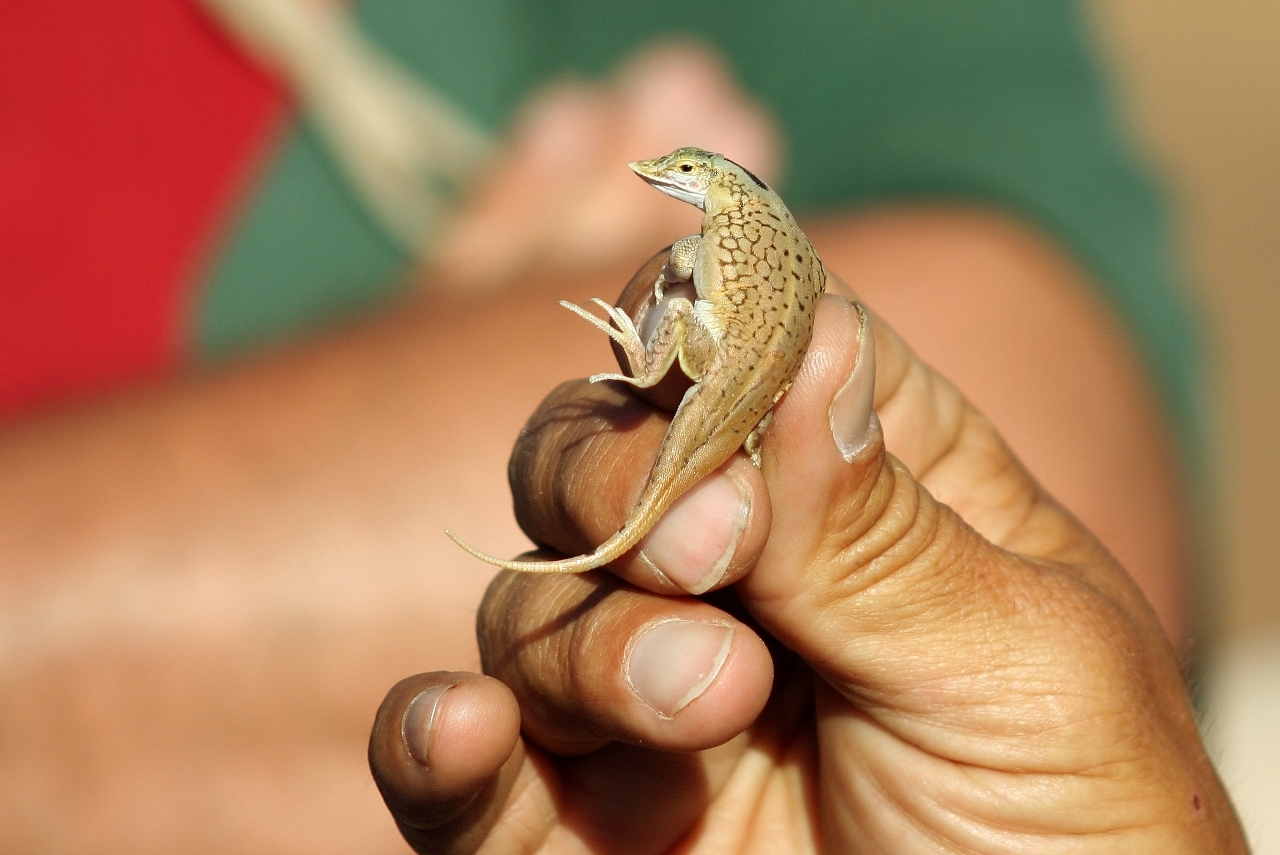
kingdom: Animalia
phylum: Chordata
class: Squamata
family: Lacertidae
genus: Meroles
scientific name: Meroles anchietae
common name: Anchieta’s dune or shovel-snouted lizard
